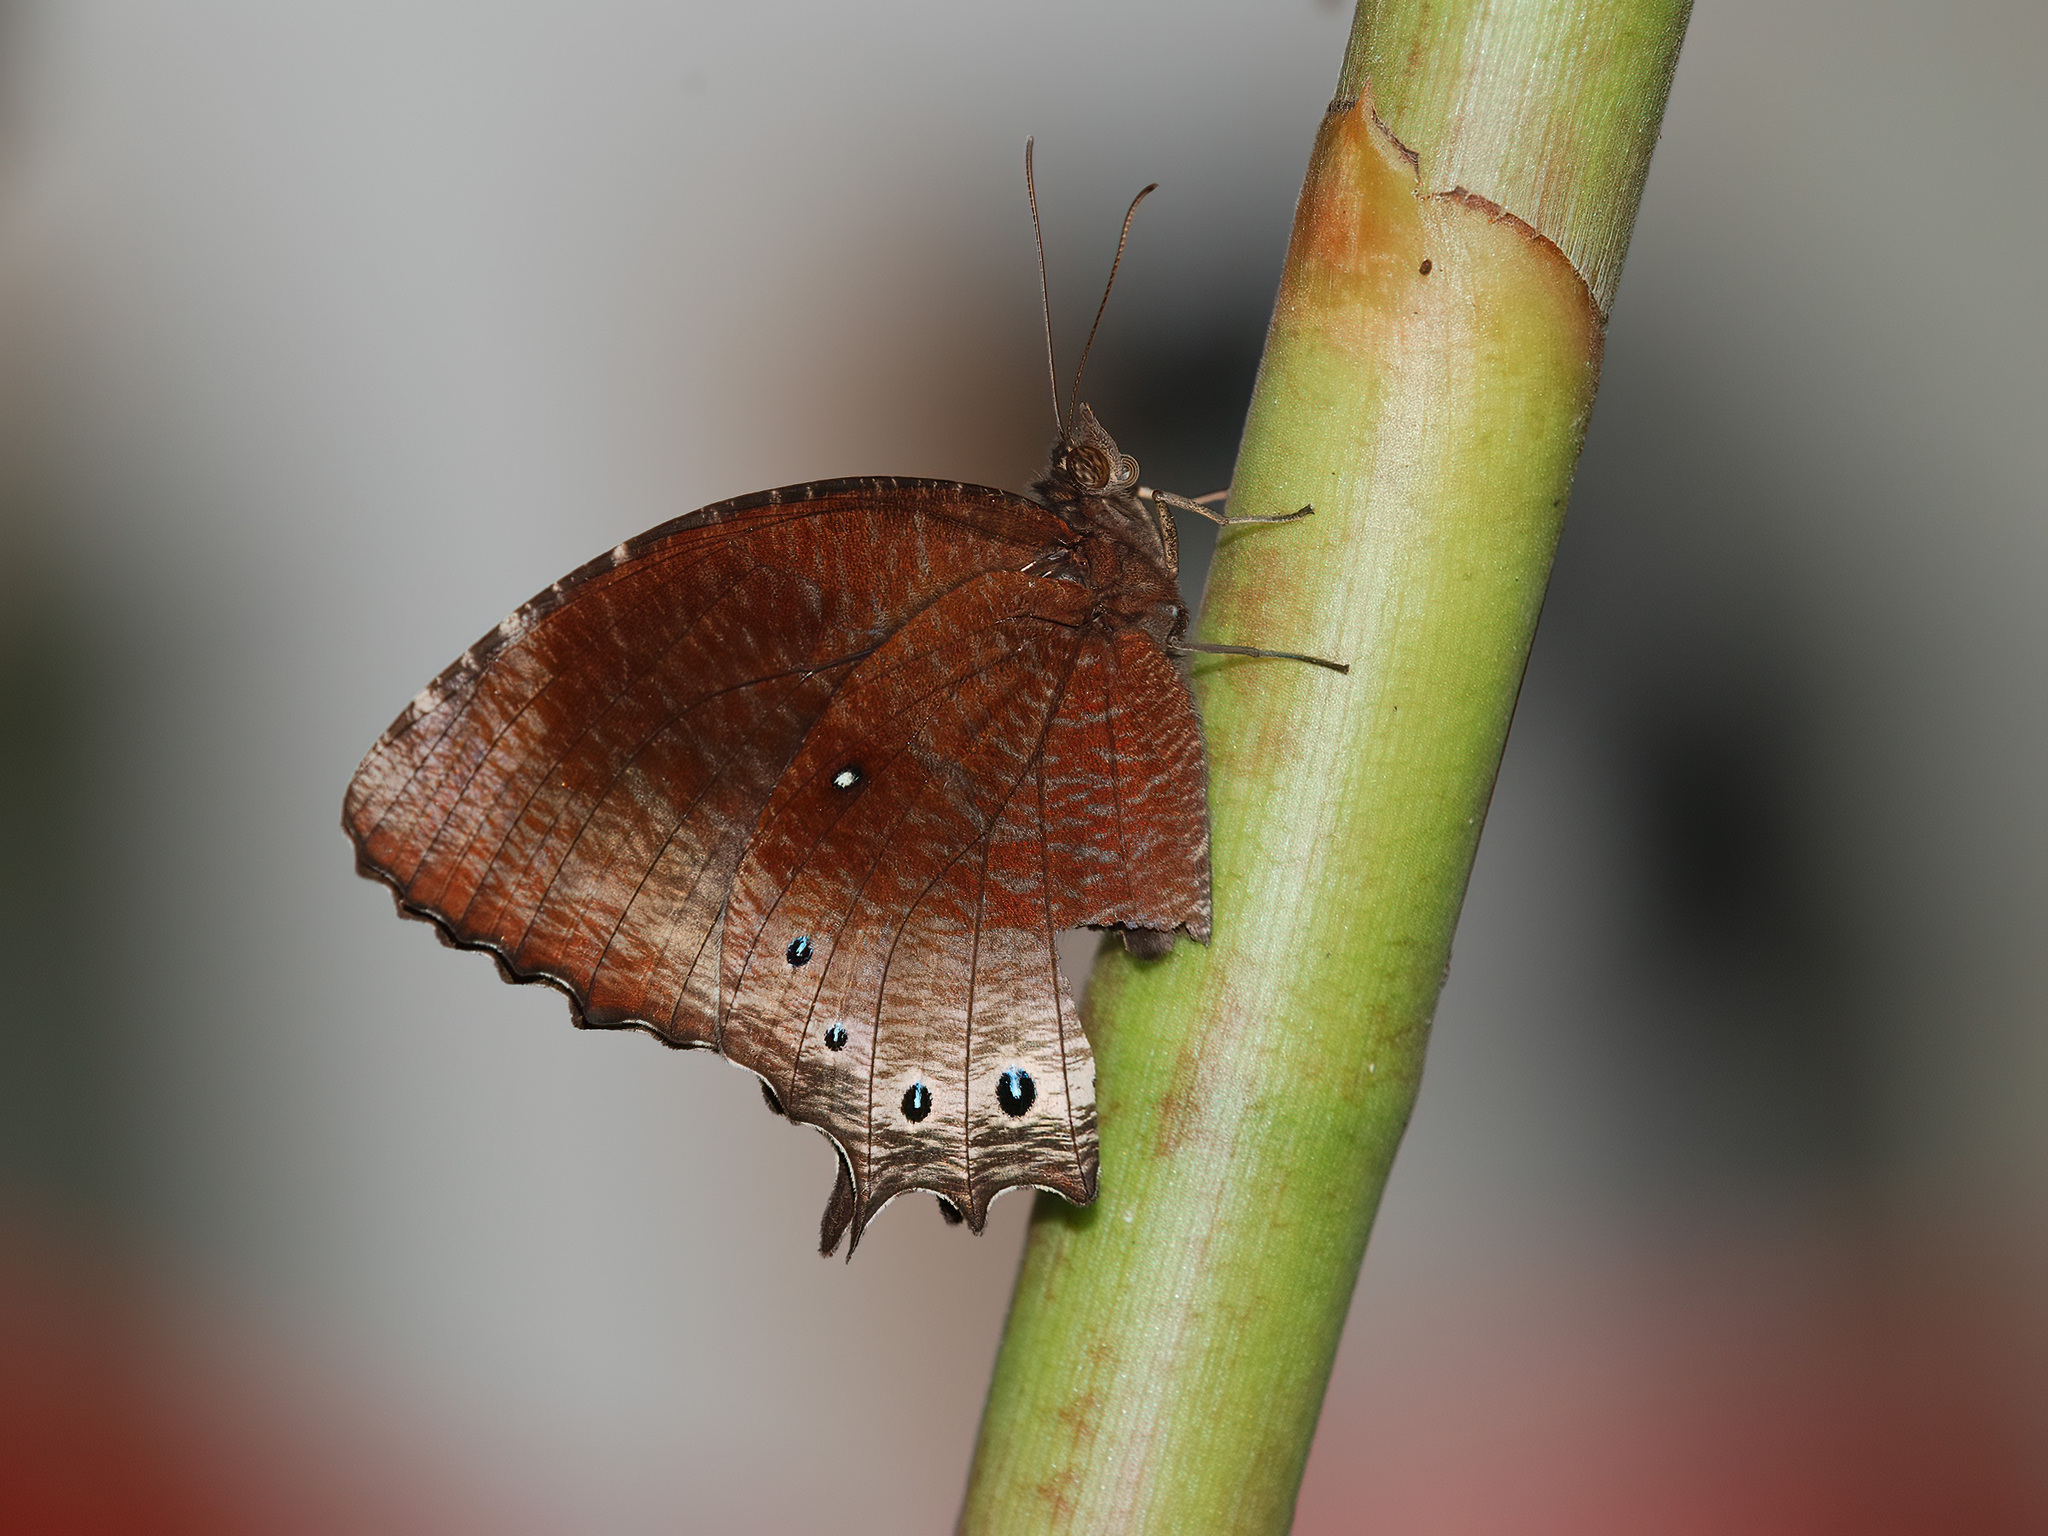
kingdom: Animalia
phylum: Arthropoda
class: Insecta
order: Lepidoptera
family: Nymphalidae
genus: Elymnias
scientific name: Elymnias panthera
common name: Tawny palmfly
